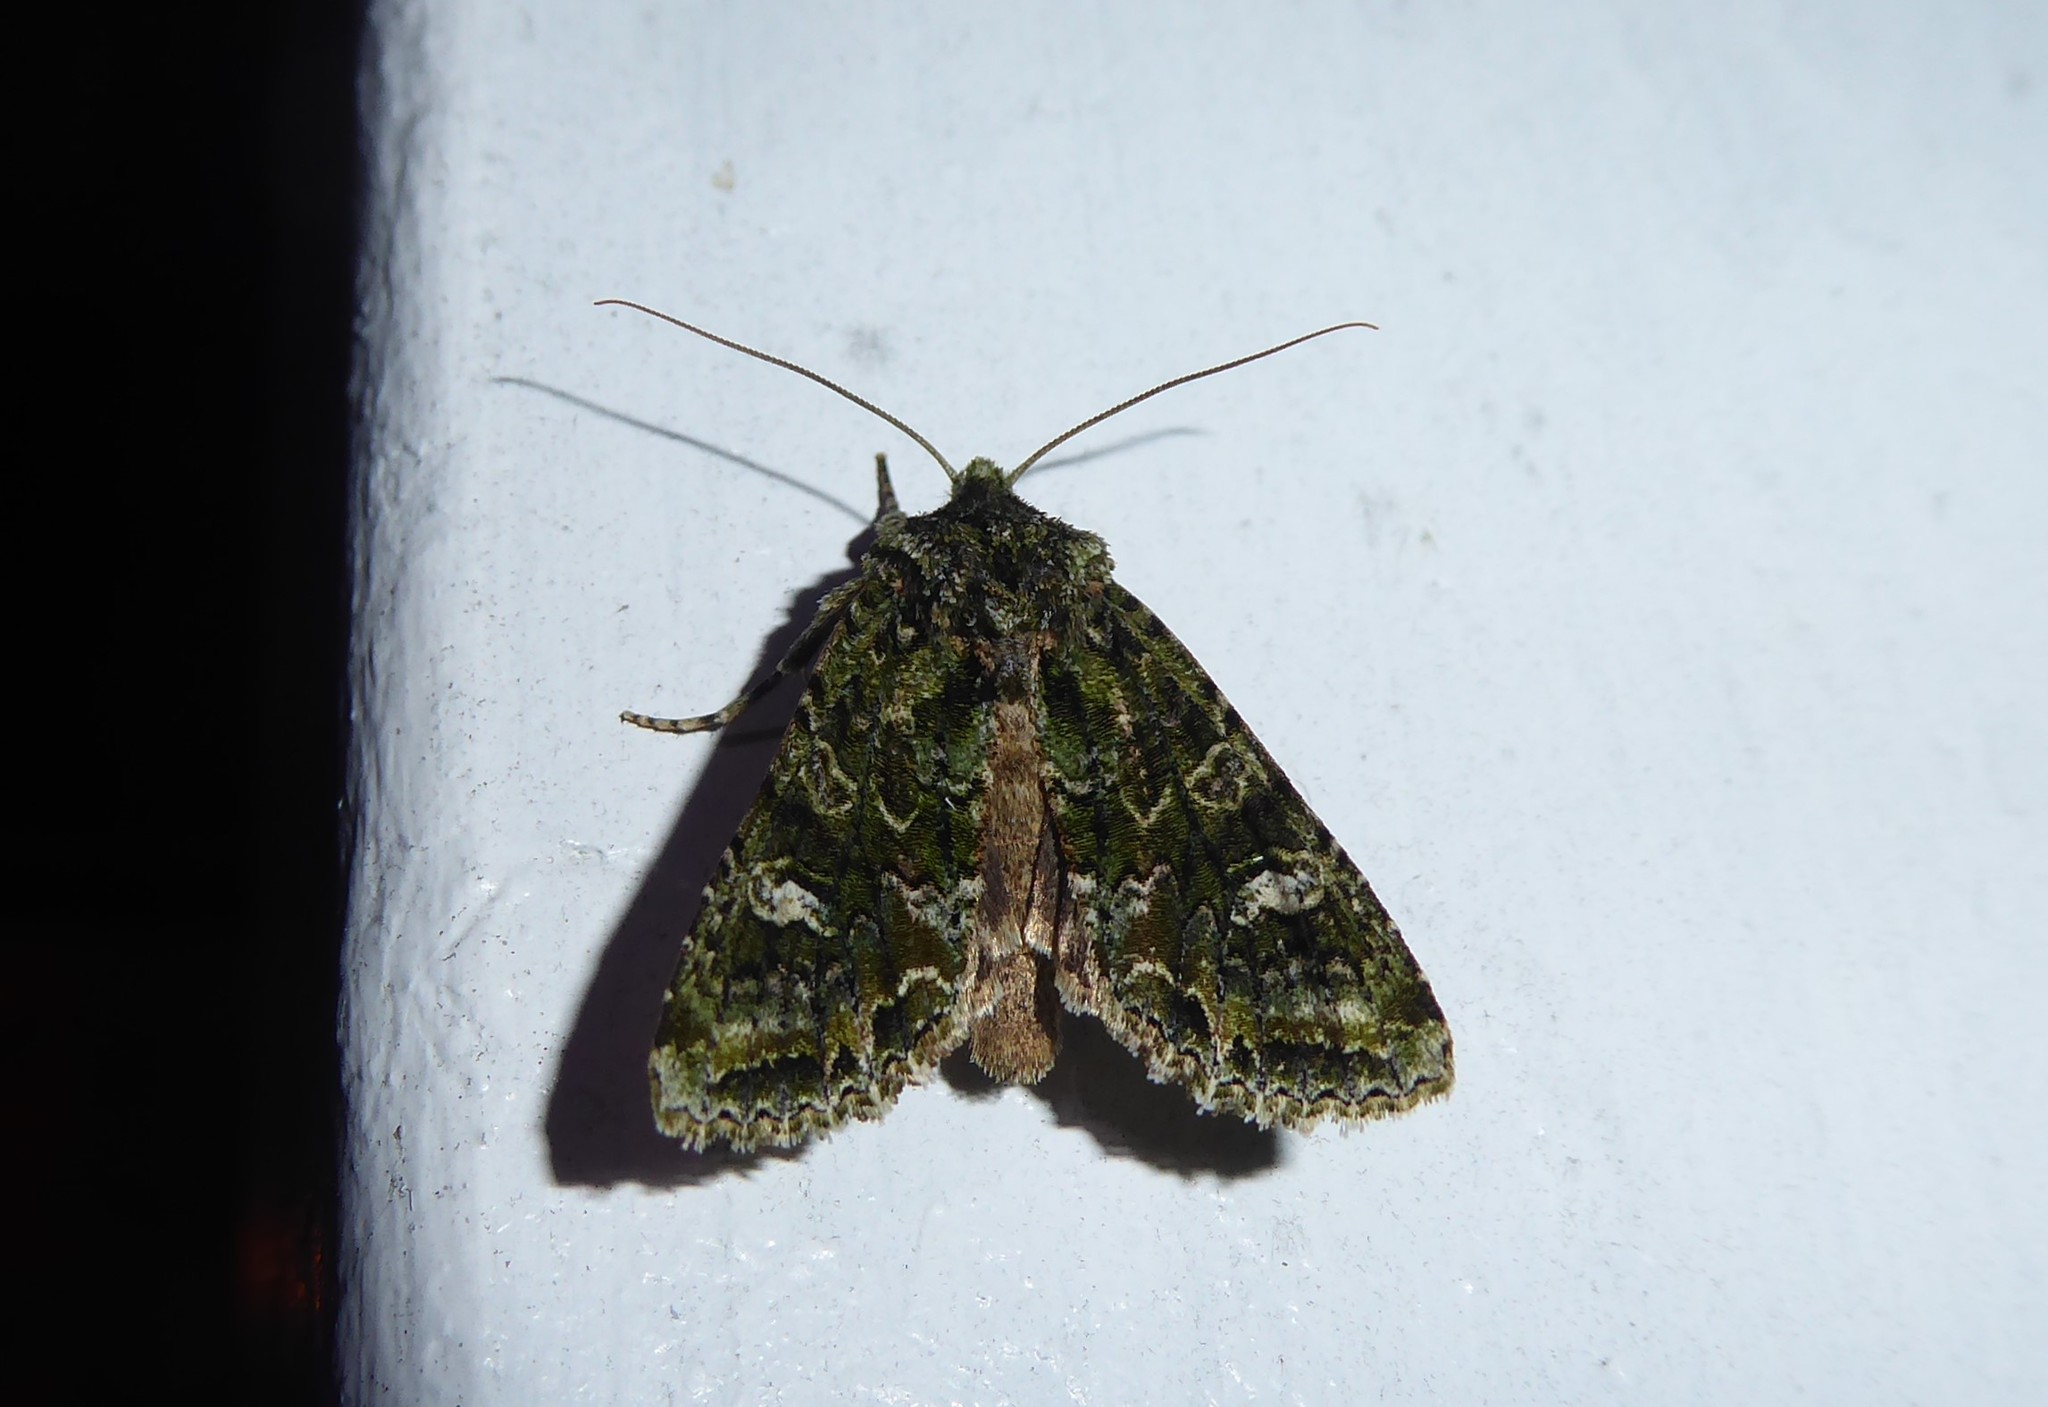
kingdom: Animalia
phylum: Arthropoda
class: Insecta
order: Lepidoptera
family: Noctuidae
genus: Ichneutica
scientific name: Ichneutica
